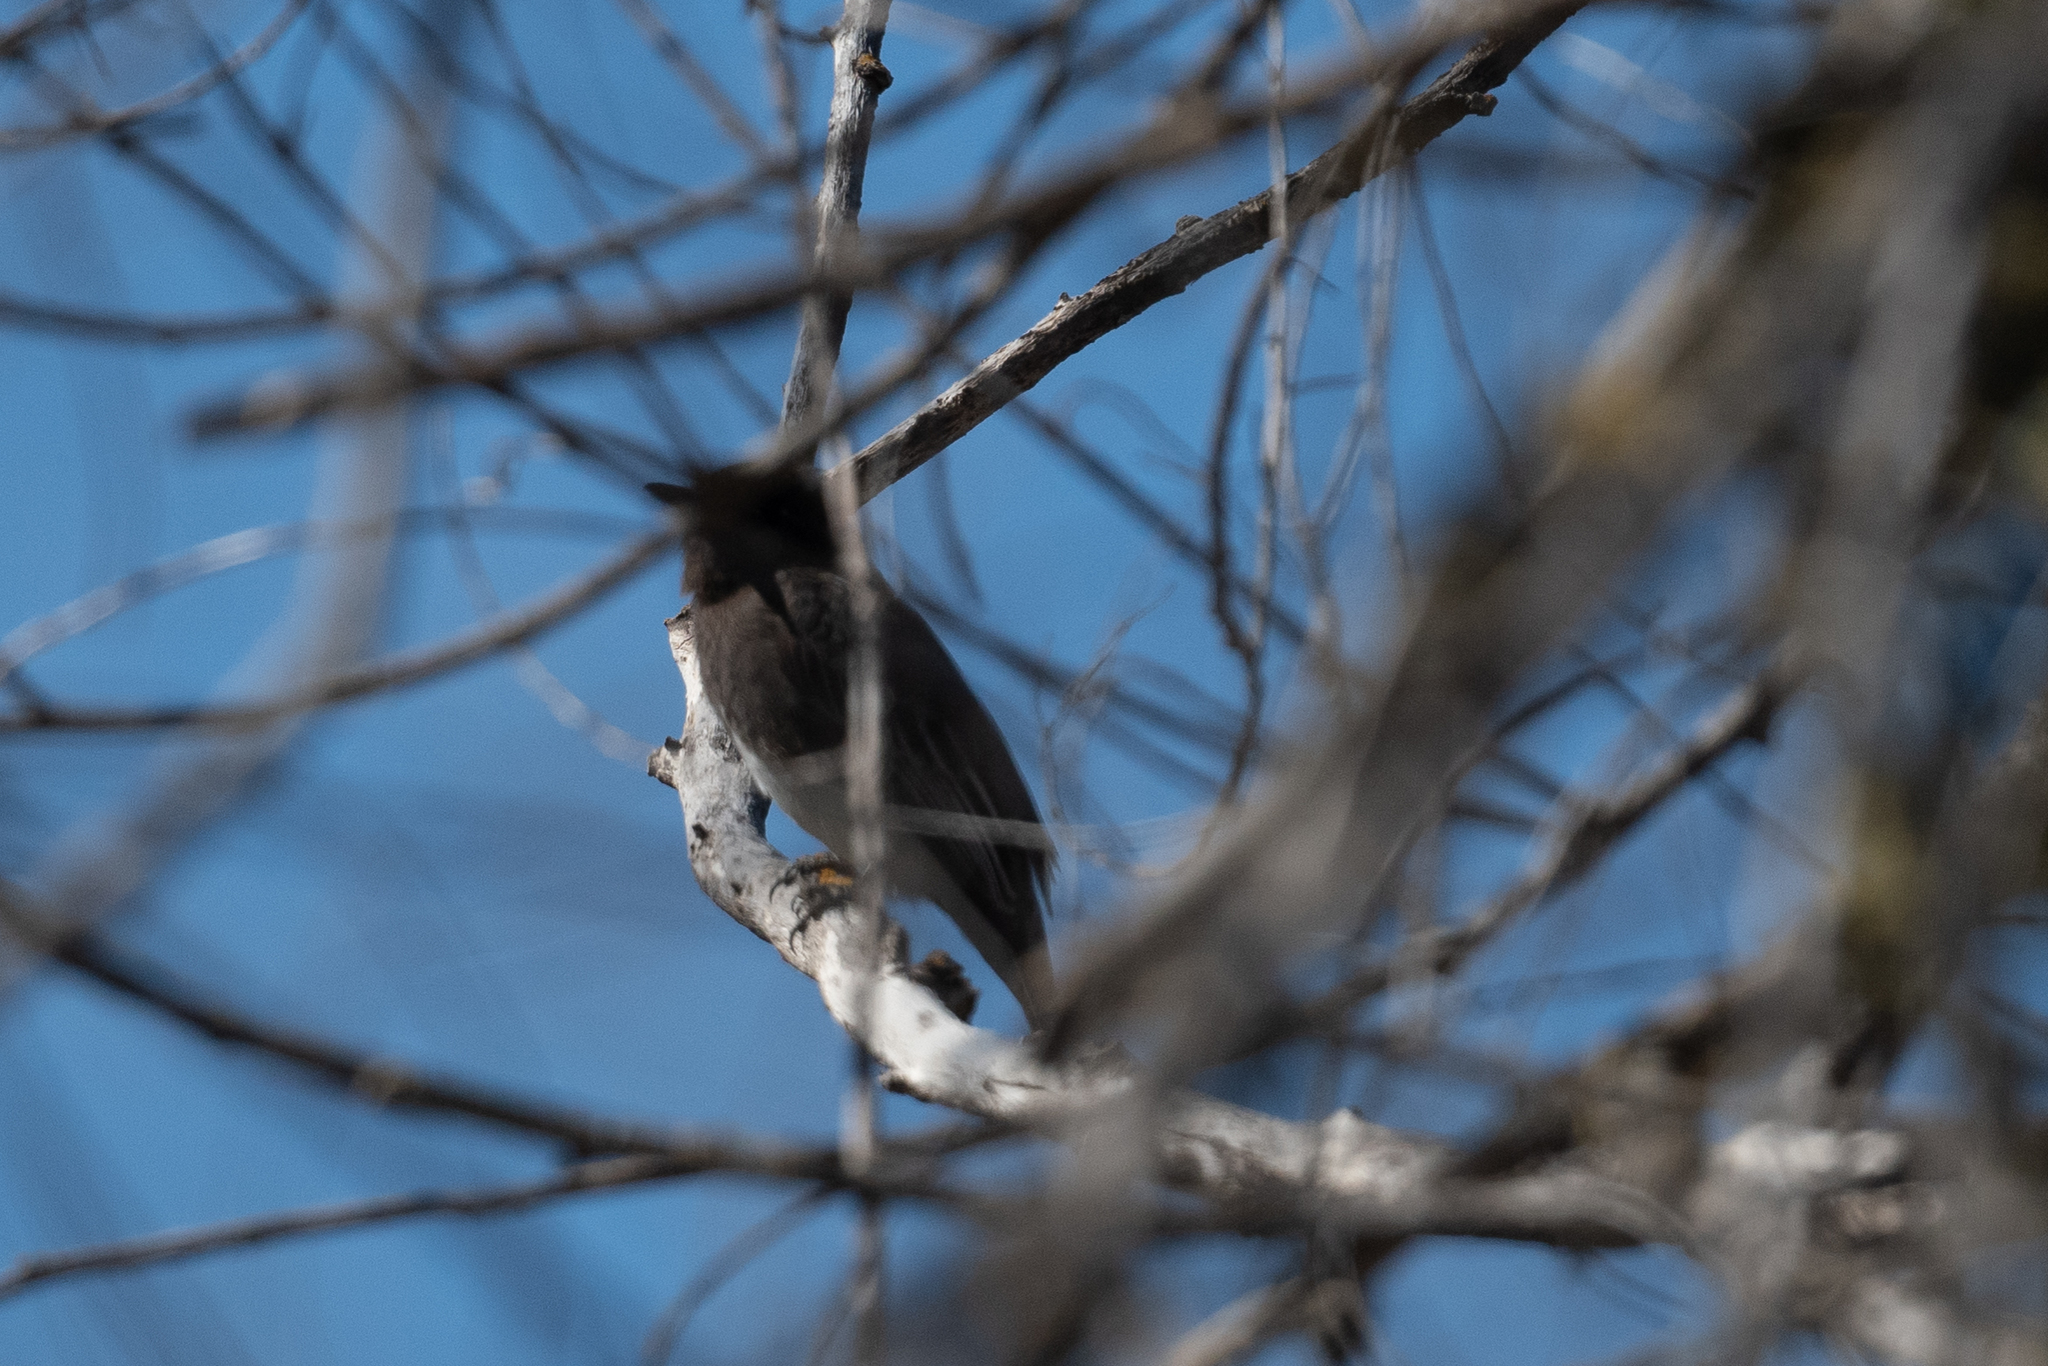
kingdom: Animalia
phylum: Chordata
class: Aves
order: Passeriformes
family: Tyrannidae
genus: Sayornis
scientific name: Sayornis nigricans
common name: Black phoebe
